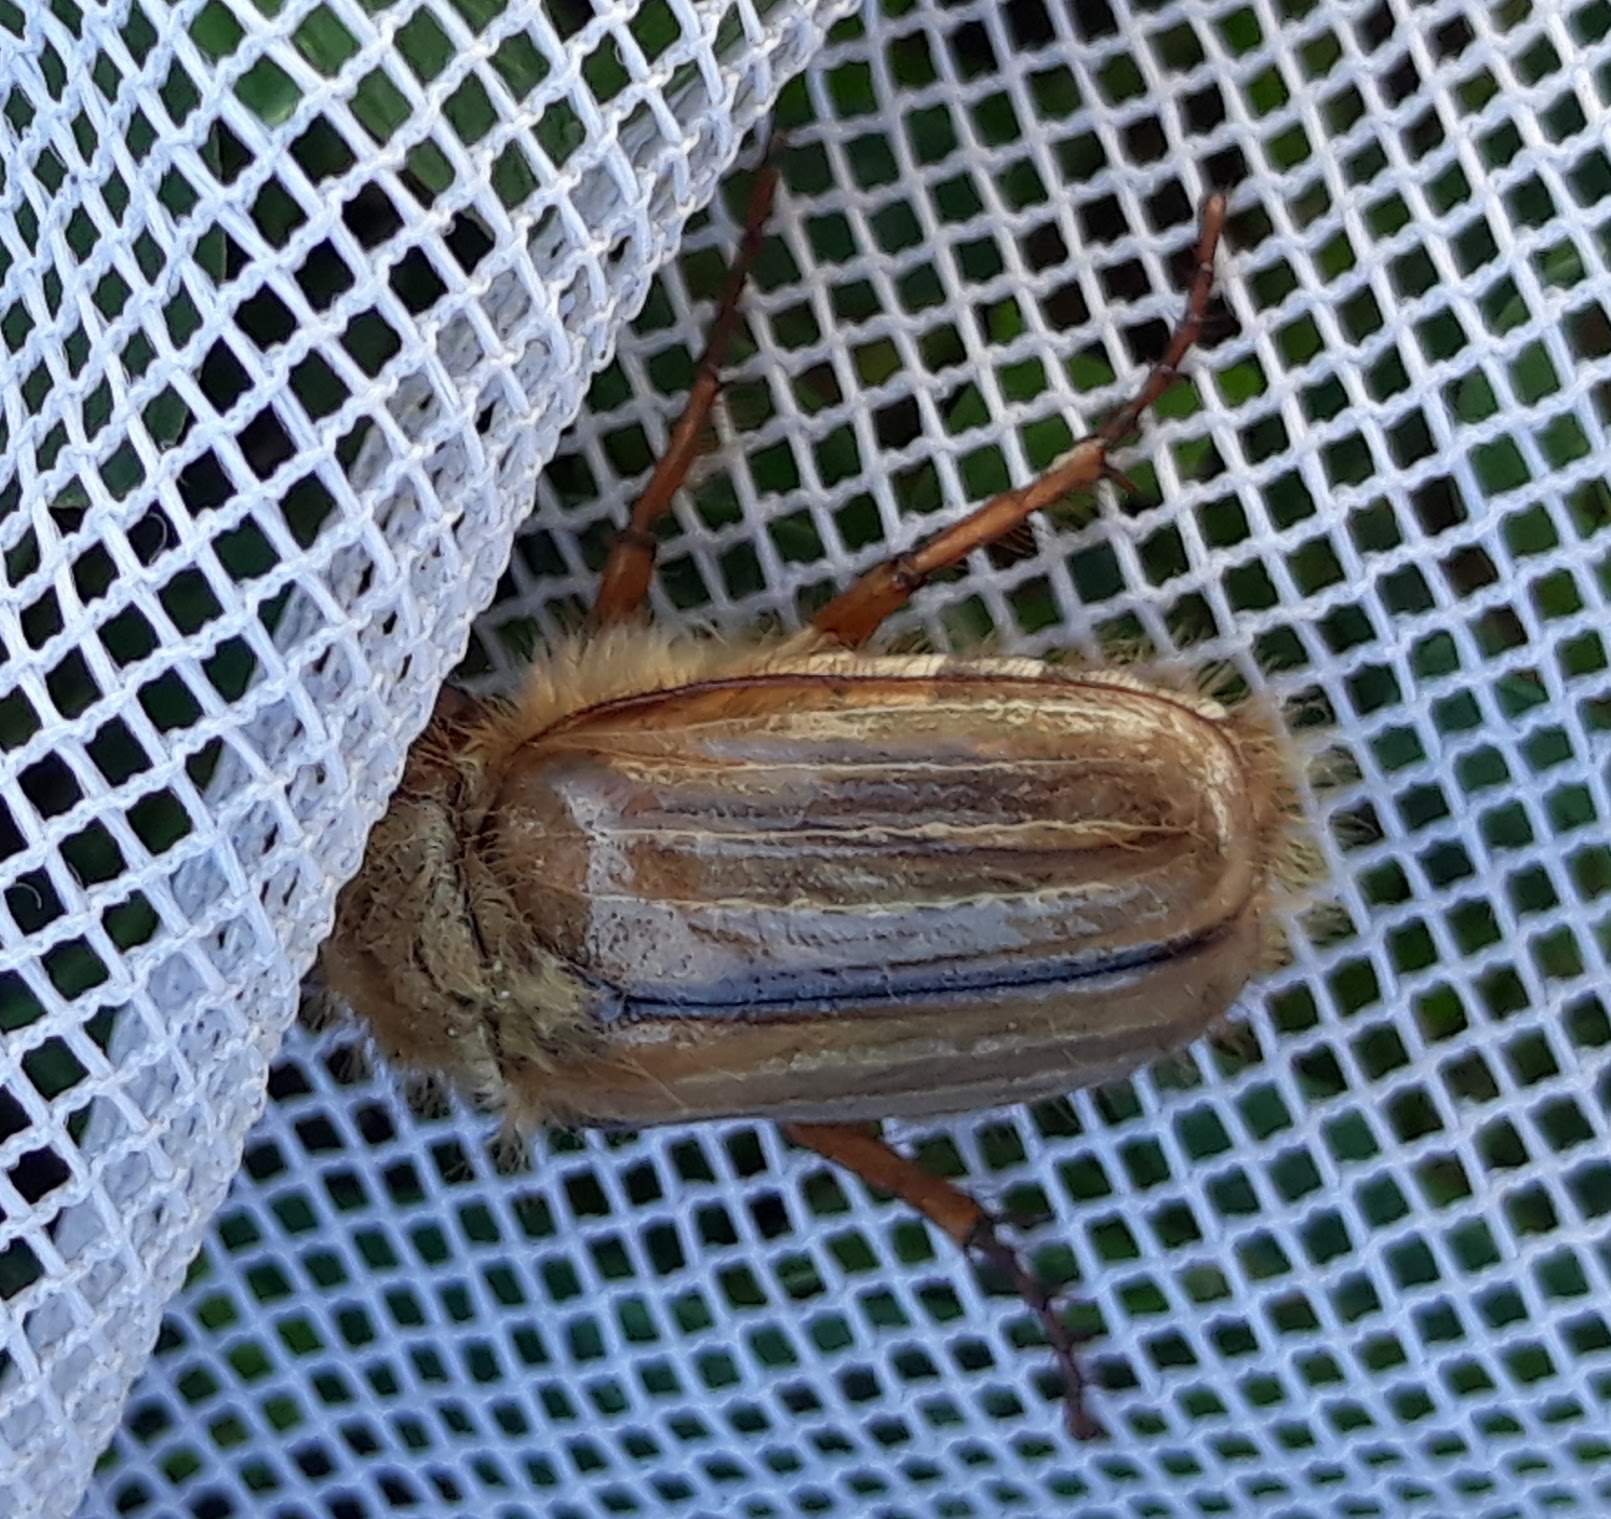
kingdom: Animalia
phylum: Arthropoda
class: Insecta
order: Coleoptera
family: Scarabaeidae
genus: Amphimallon
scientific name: Amphimallon solstitiale
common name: Summer chafer
